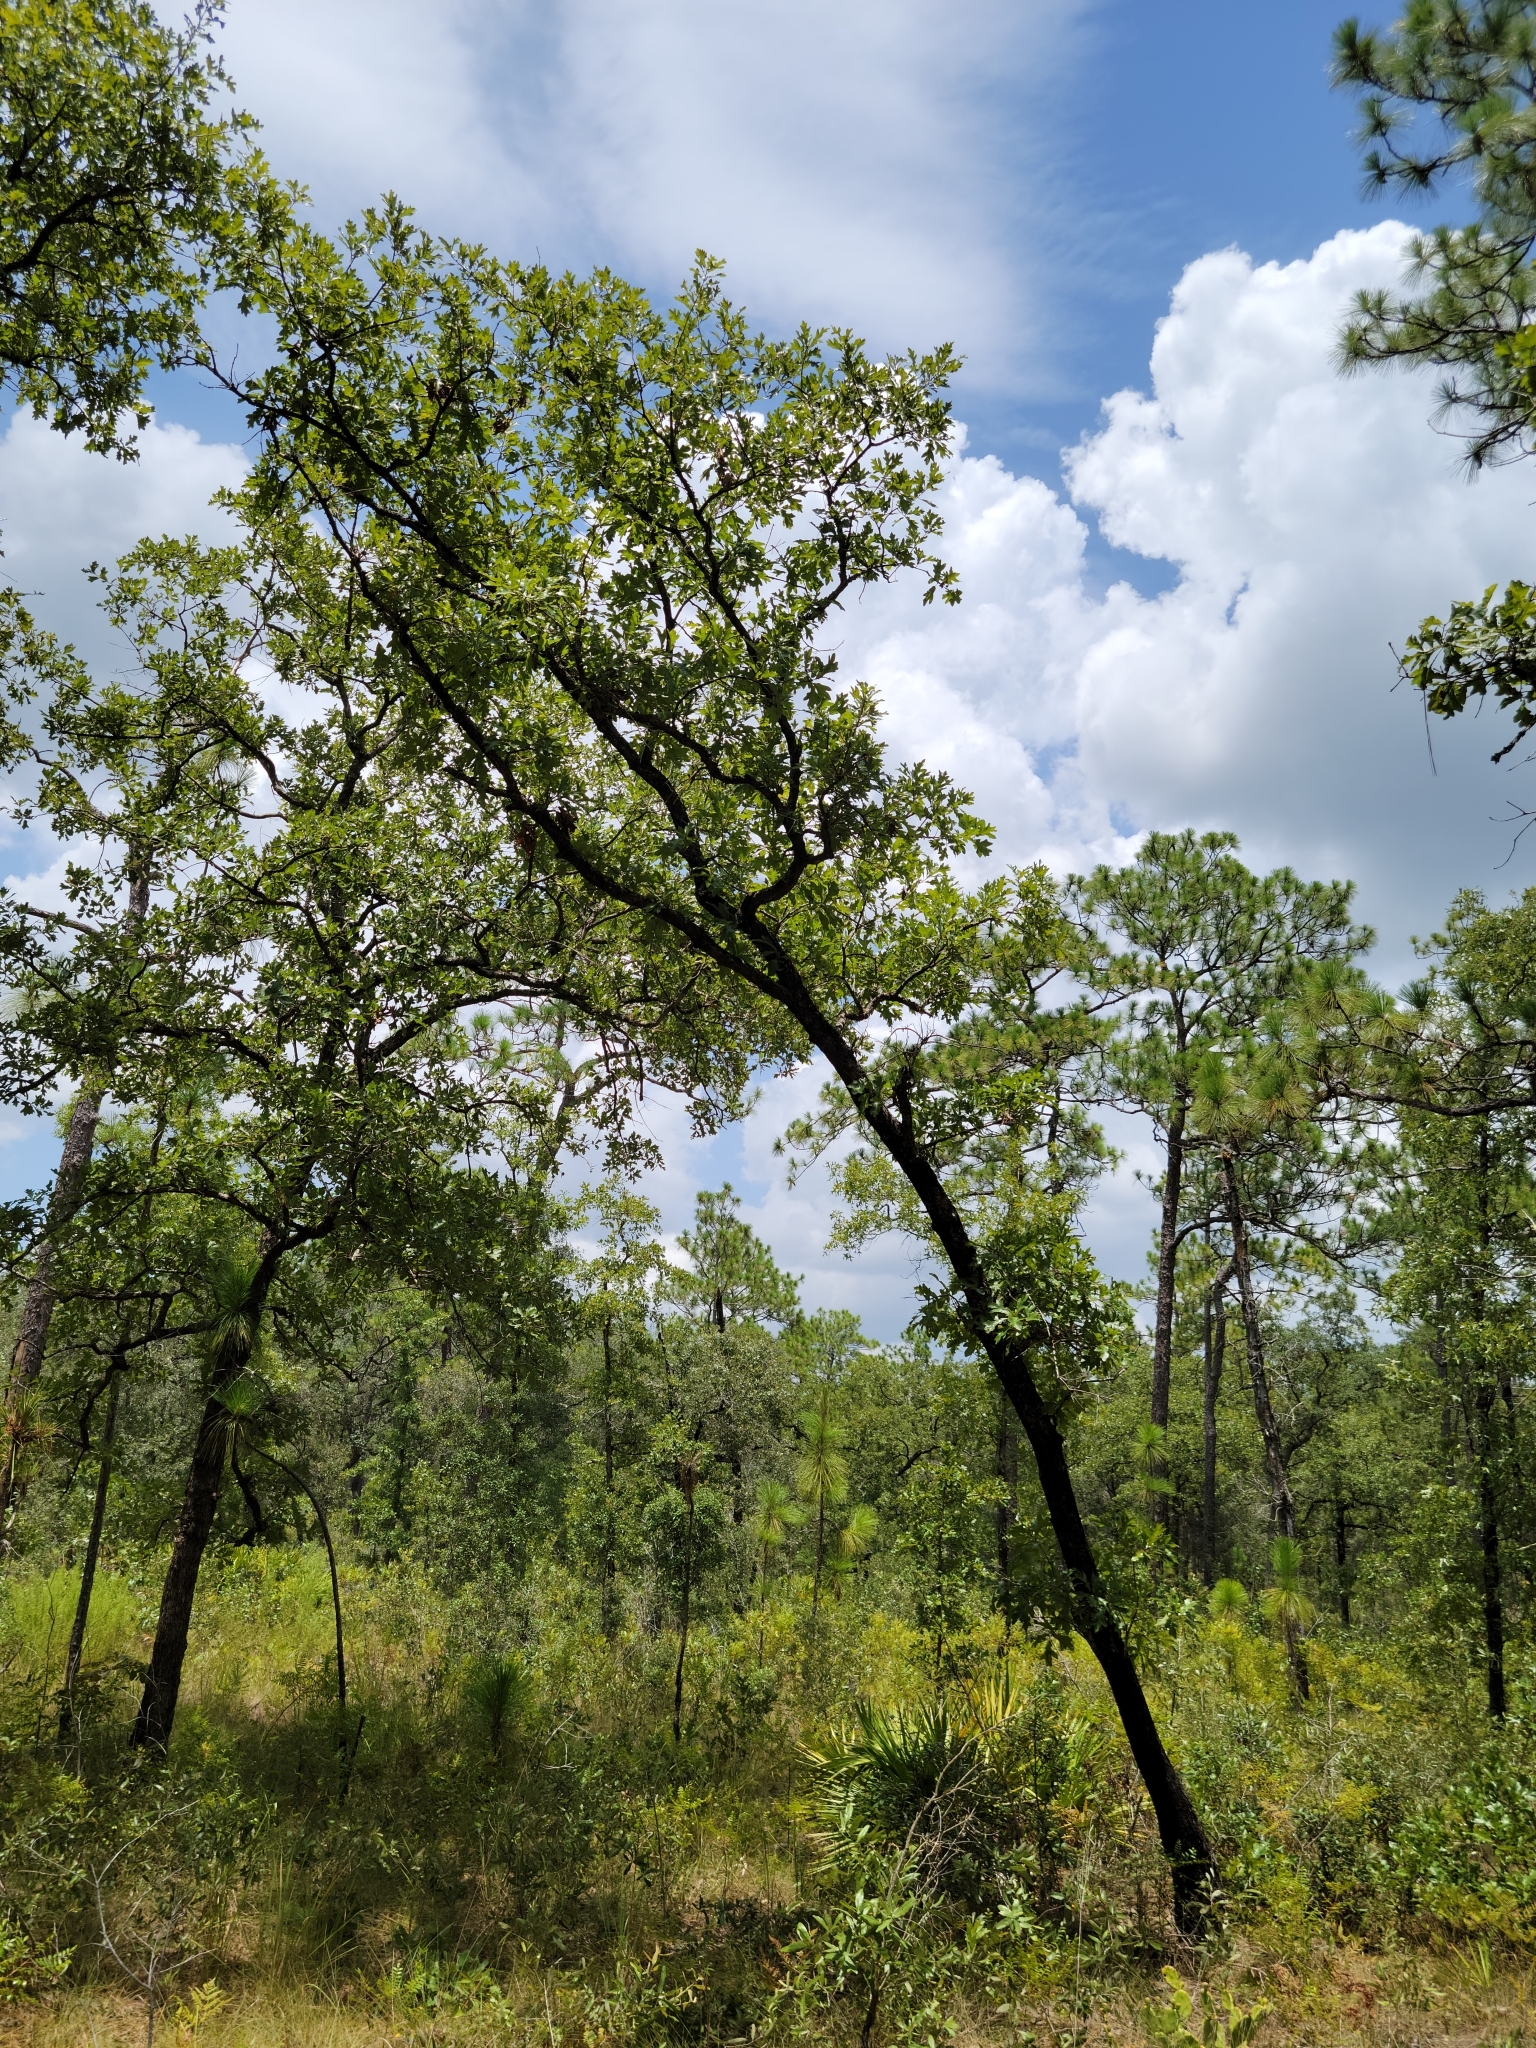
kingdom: Plantae
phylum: Tracheophyta
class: Magnoliopsida
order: Fagales
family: Fagaceae
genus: Quercus
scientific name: Quercus margaretiae
